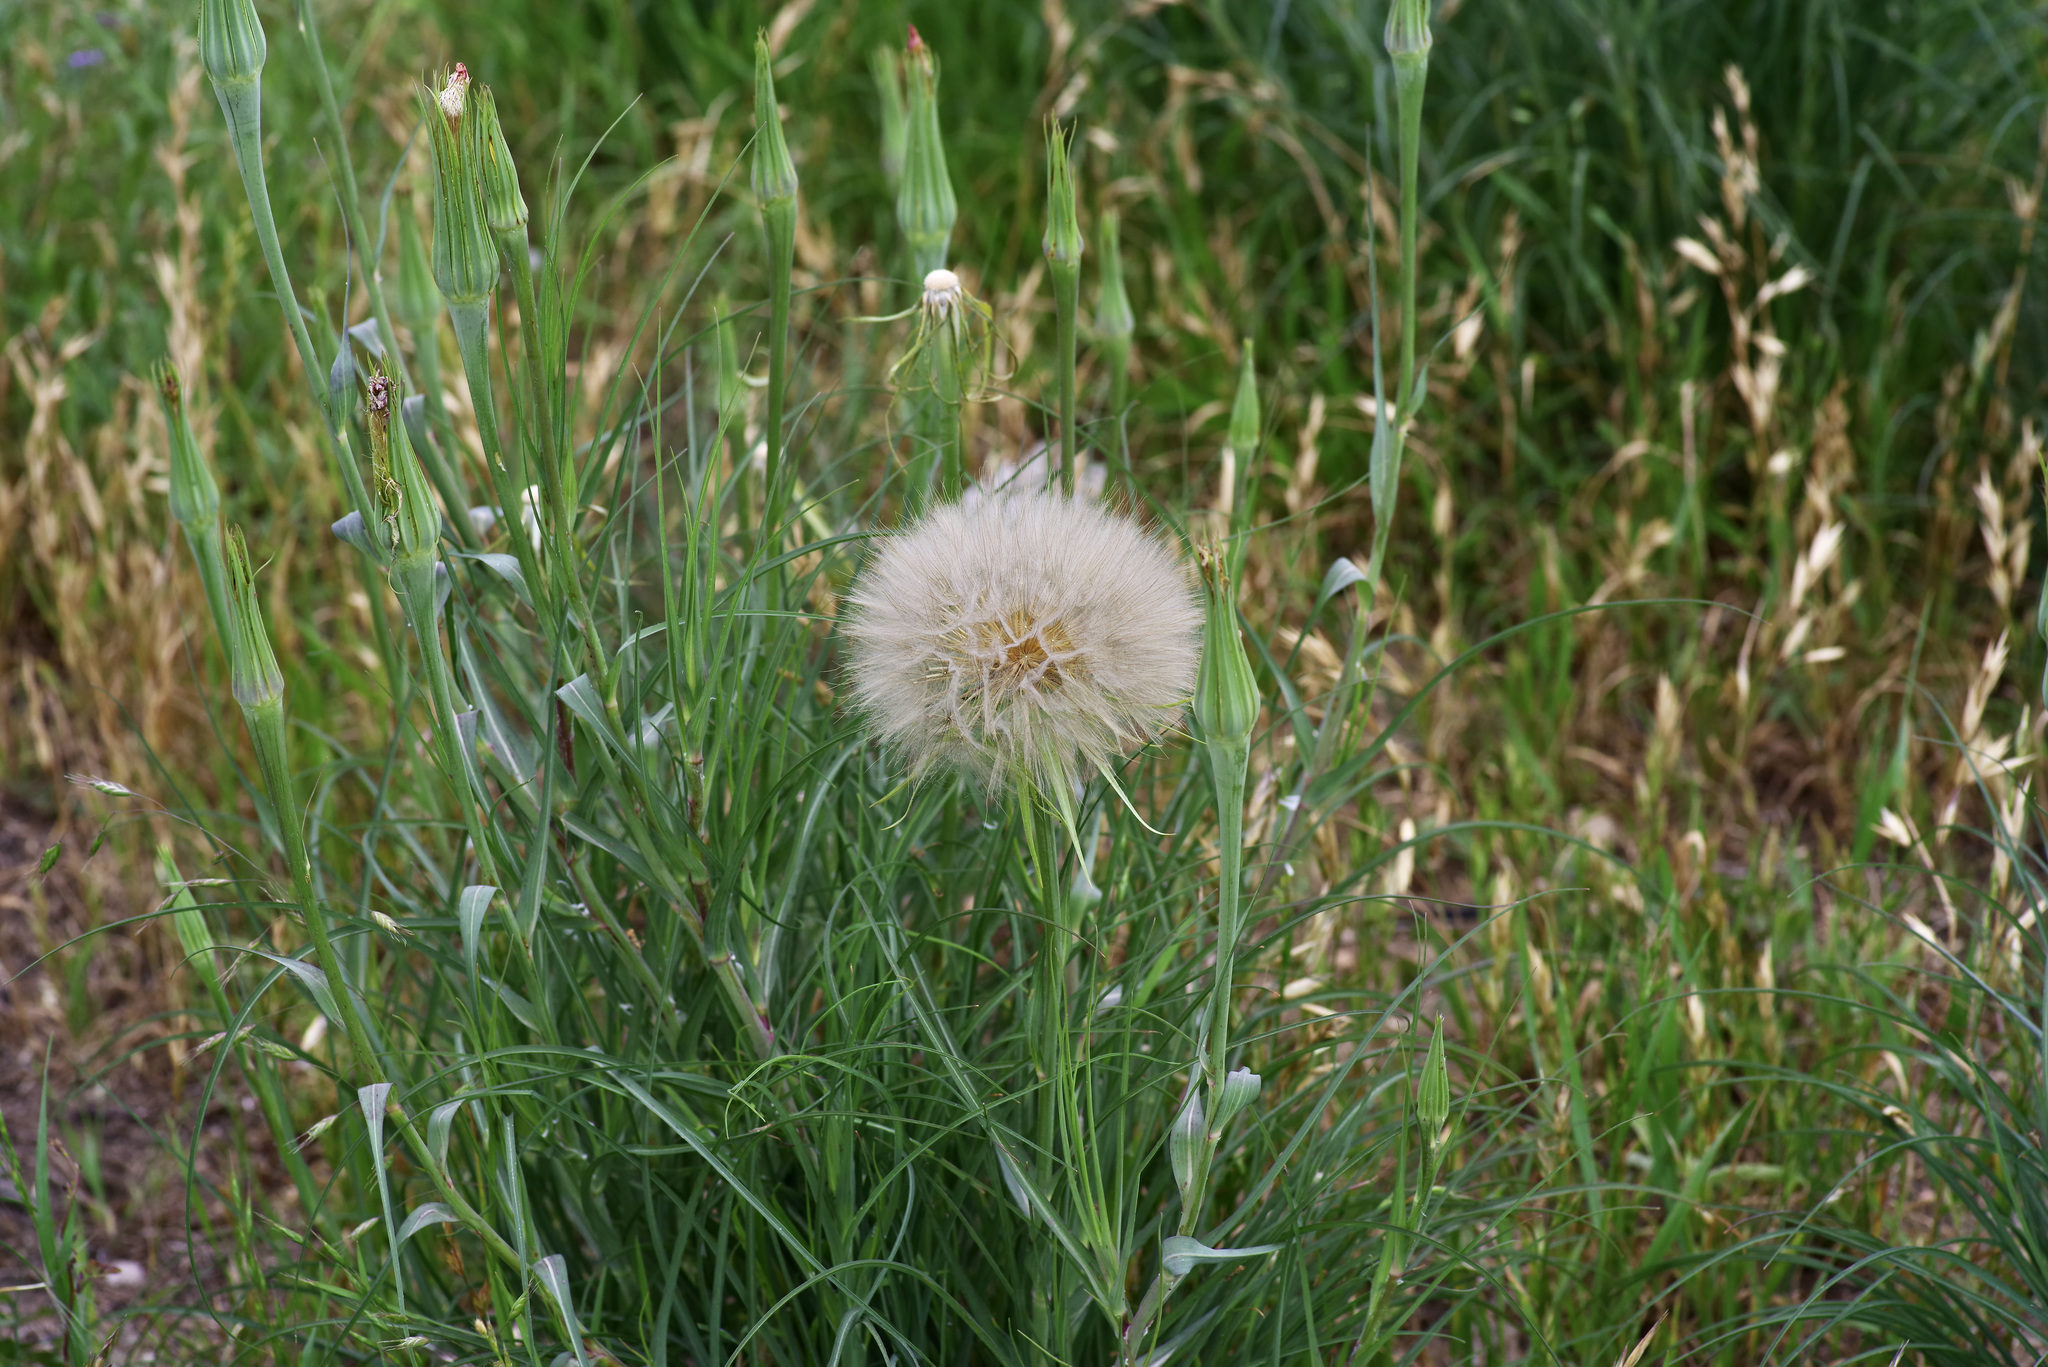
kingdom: Plantae
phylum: Tracheophyta
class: Magnoliopsida
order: Asterales
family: Asteraceae
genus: Tragopogon
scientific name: Tragopogon dubius
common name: Yellow salsify
